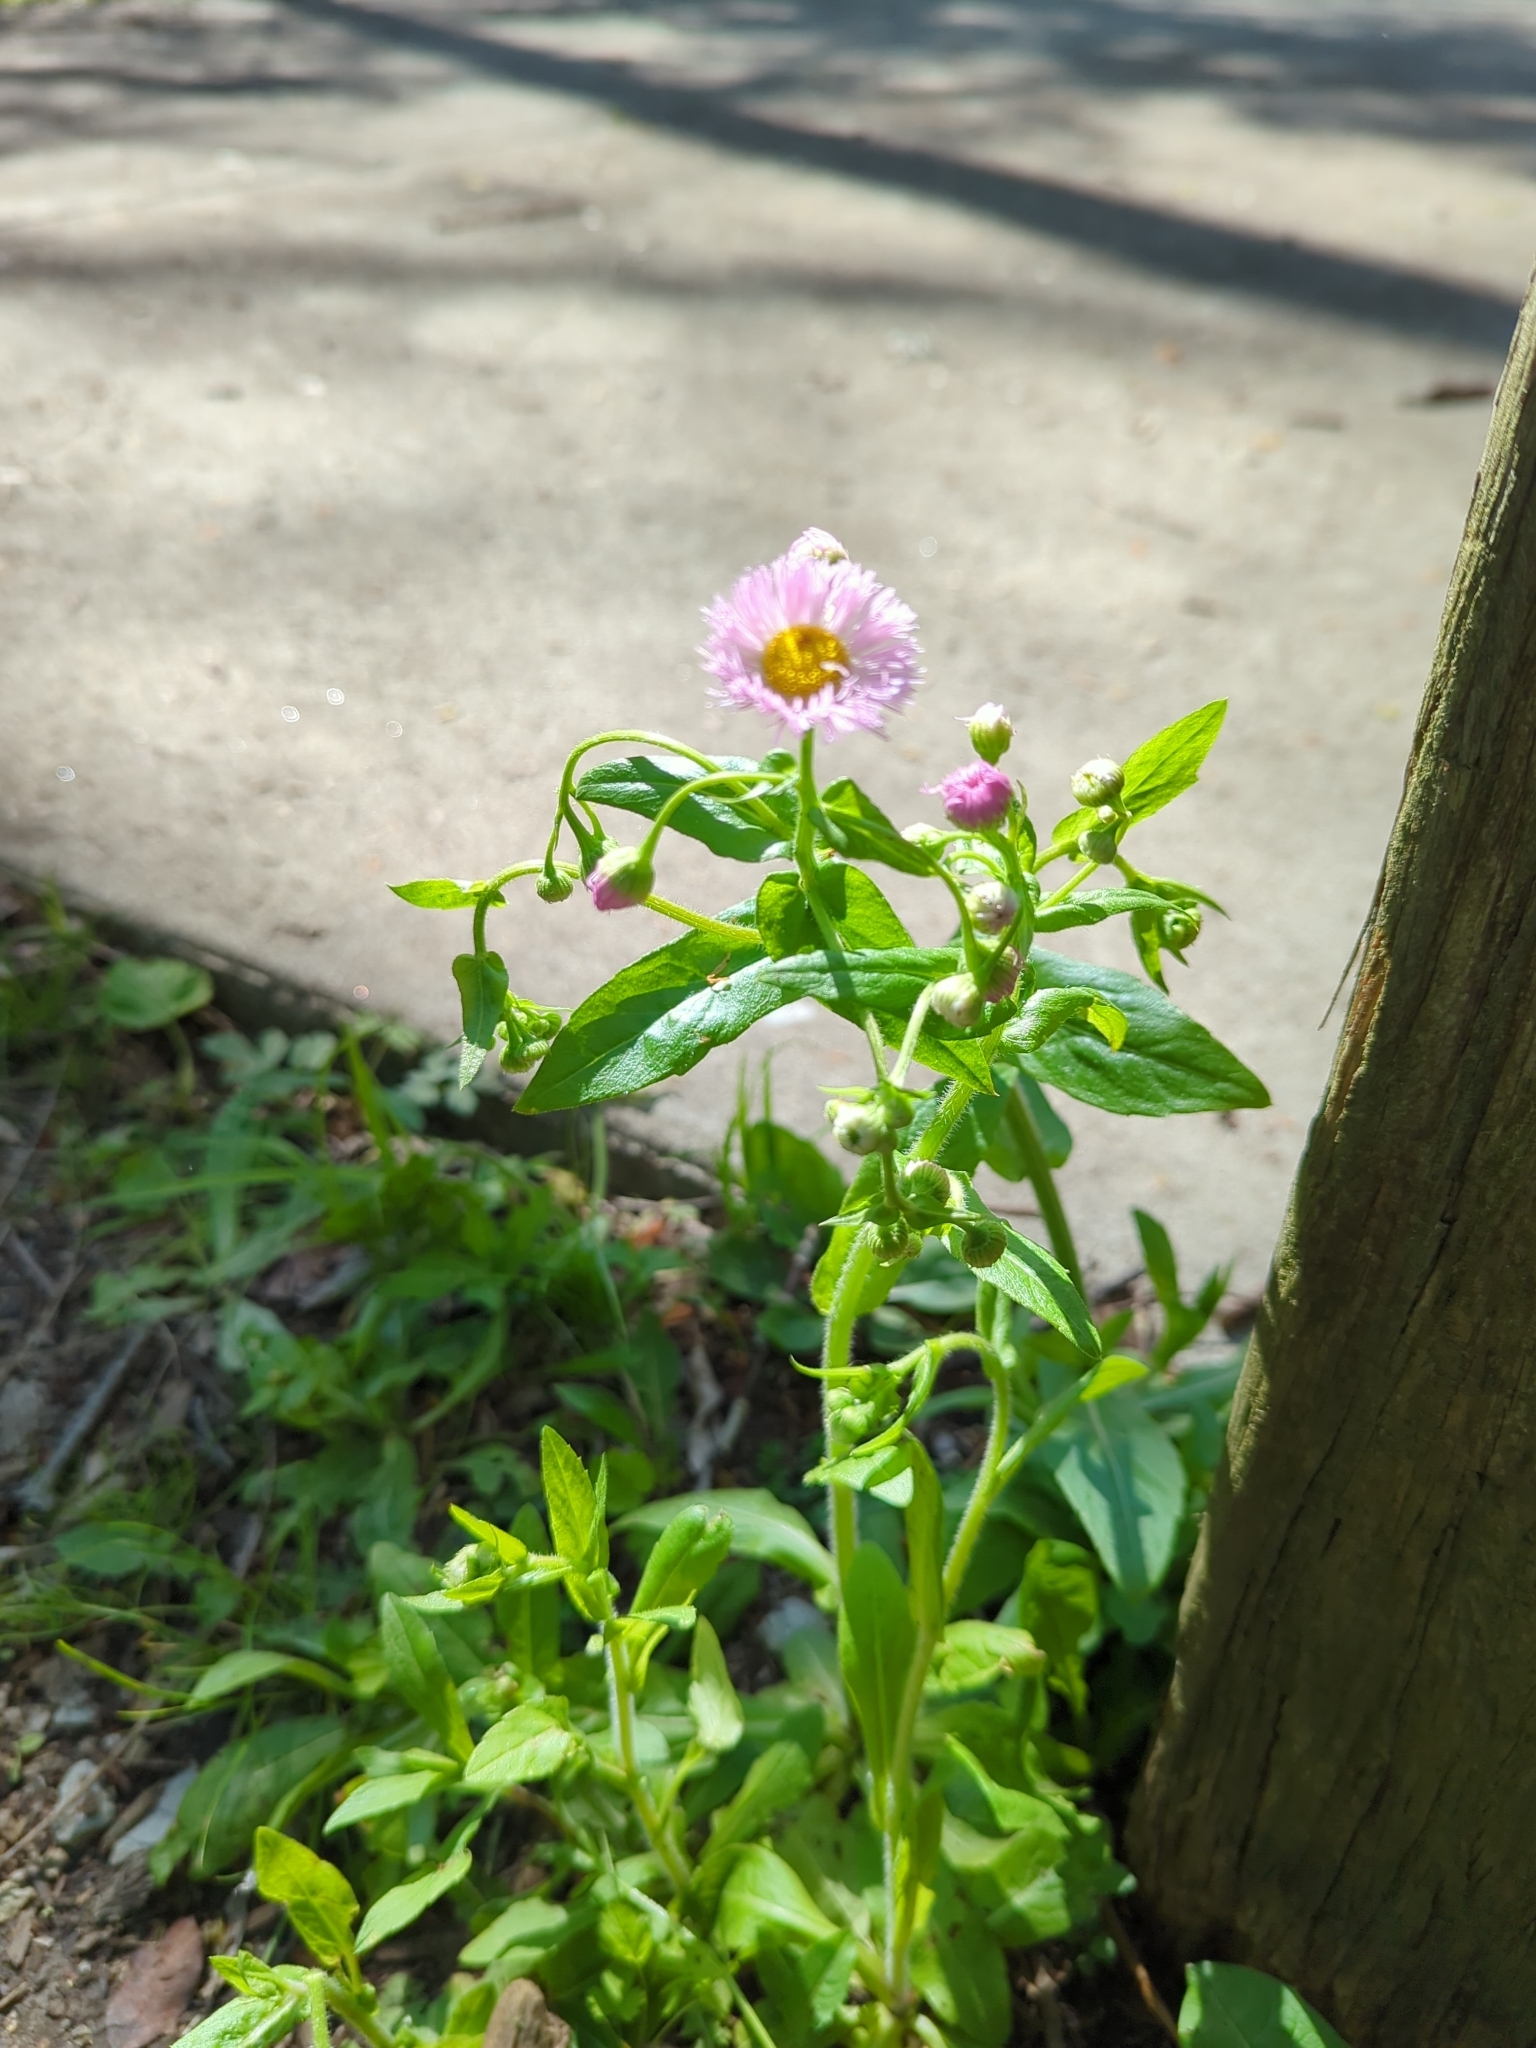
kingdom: Plantae
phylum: Tracheophyta
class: Magnoliopsida
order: Asterales
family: Asteraceae
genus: Erigeron
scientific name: Erigeron philadelphicus
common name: Robin's-plantain
